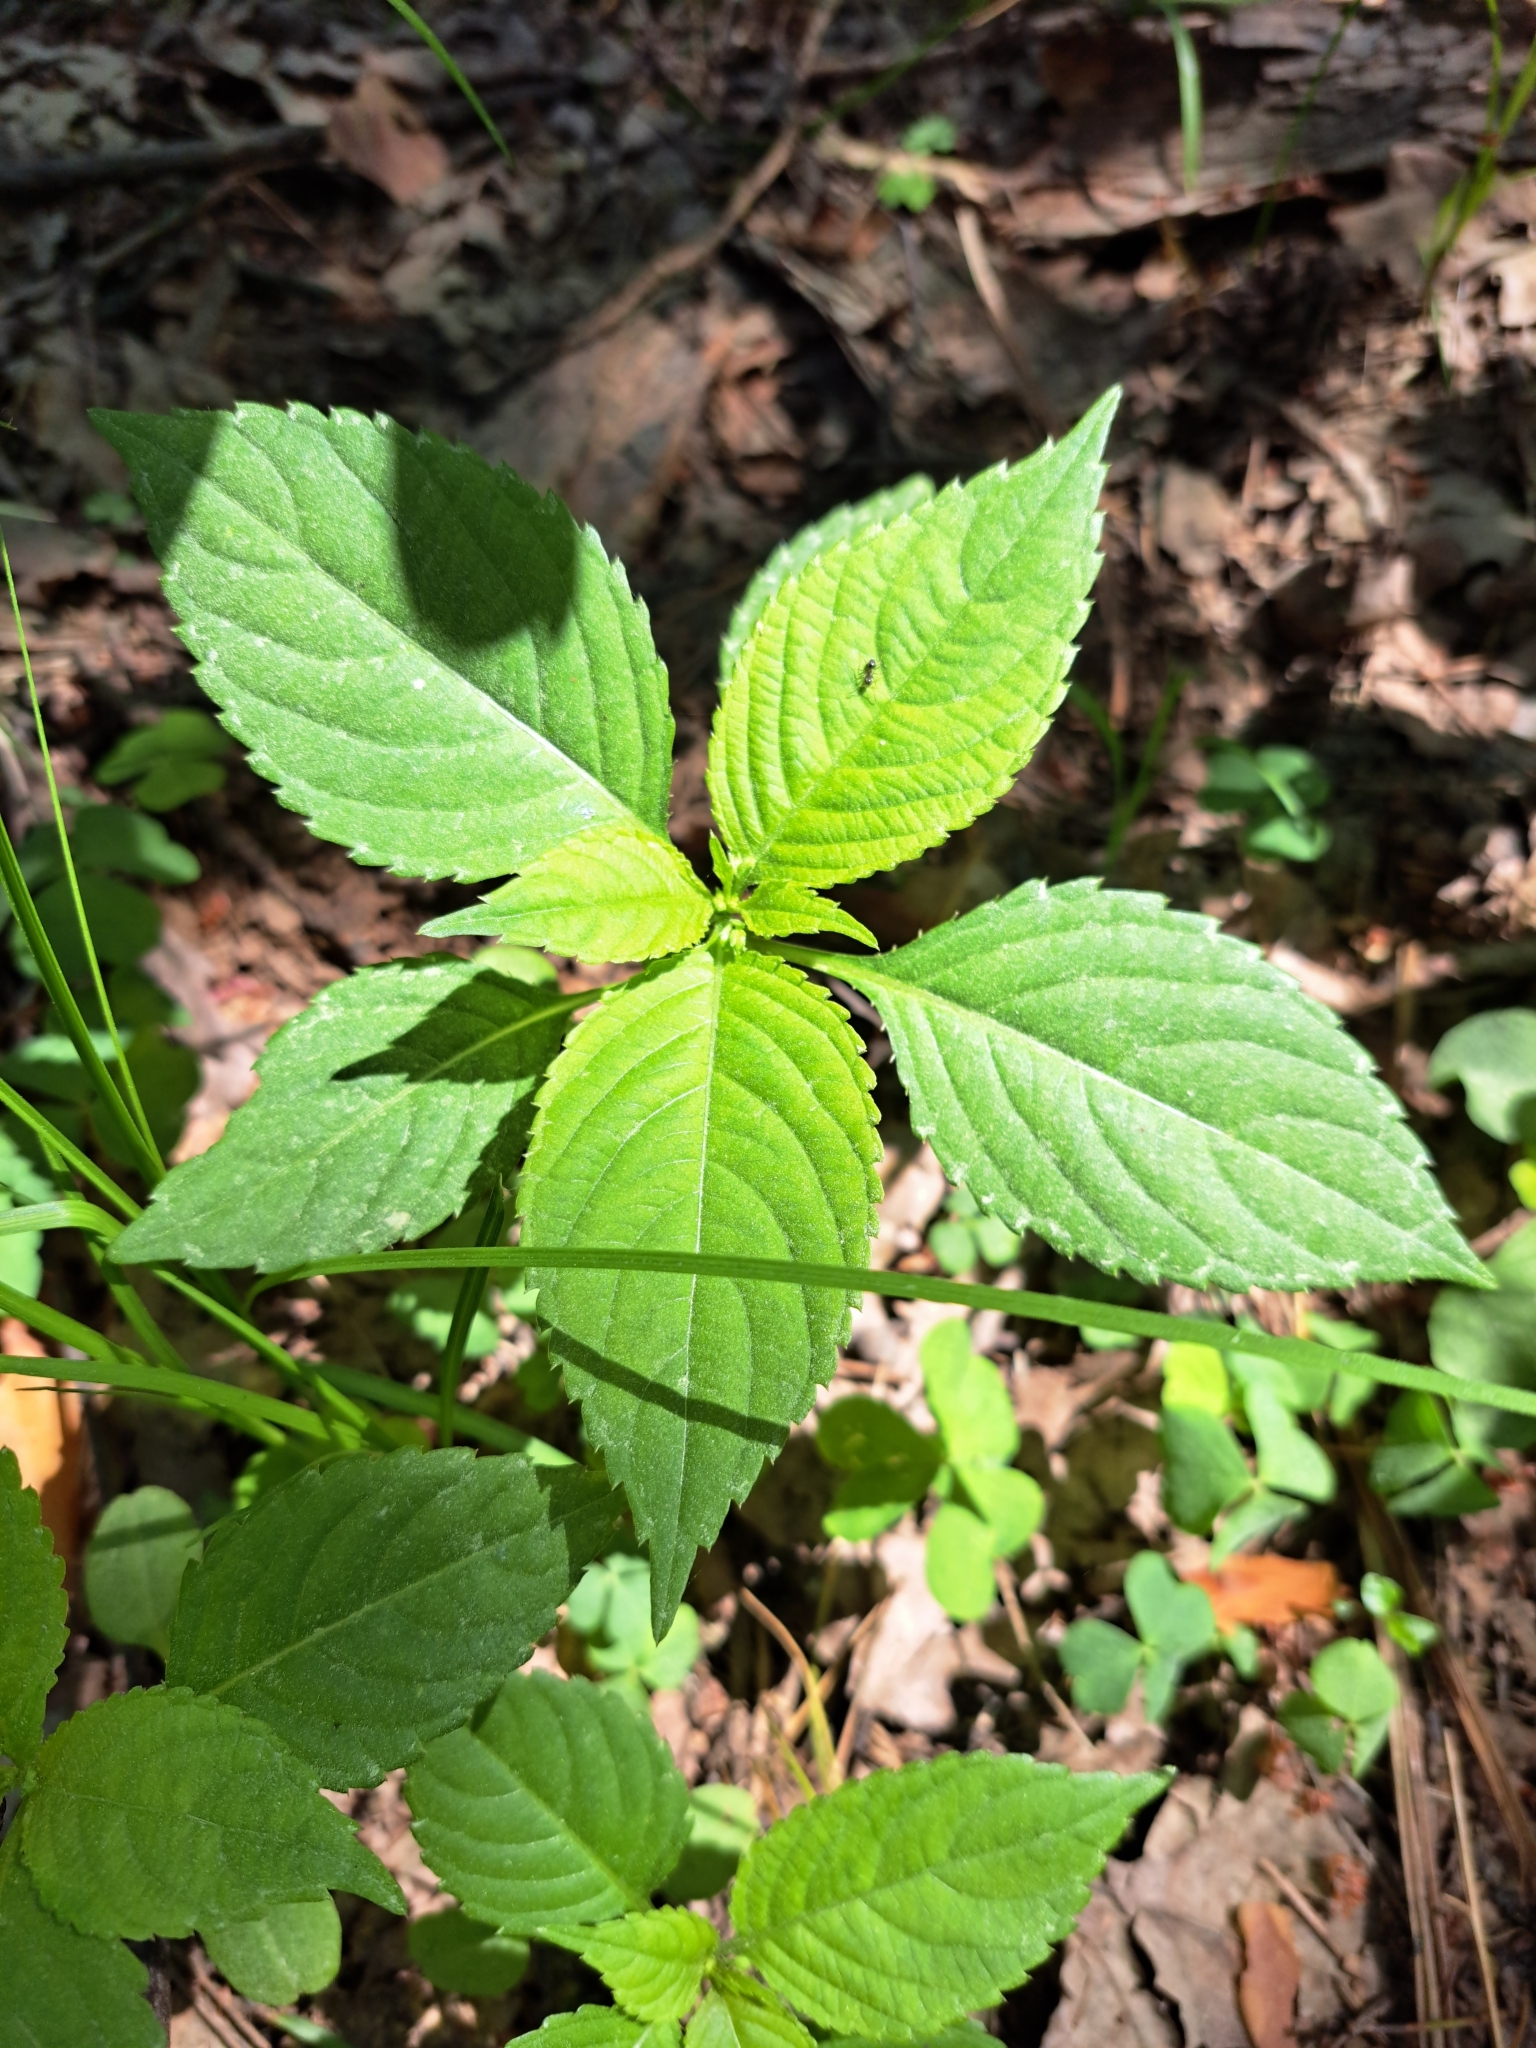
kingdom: Plantae
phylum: Tracheophyta
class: Magnoliopsida
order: Ericales
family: Balsaminaceae
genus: Impatiens
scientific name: Impatiens parviflora
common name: Small balsam
